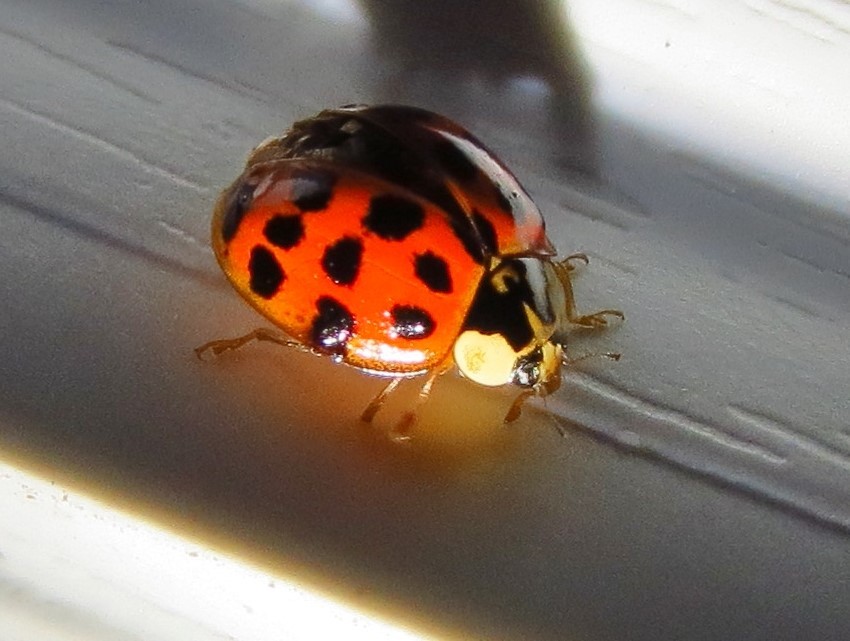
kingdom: Animalia
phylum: Arthropoda
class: Insecta
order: Coleoptera
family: Coccinellidae
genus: Harmonia
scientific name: Harmonia axyridis
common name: Harlequin ladybird
